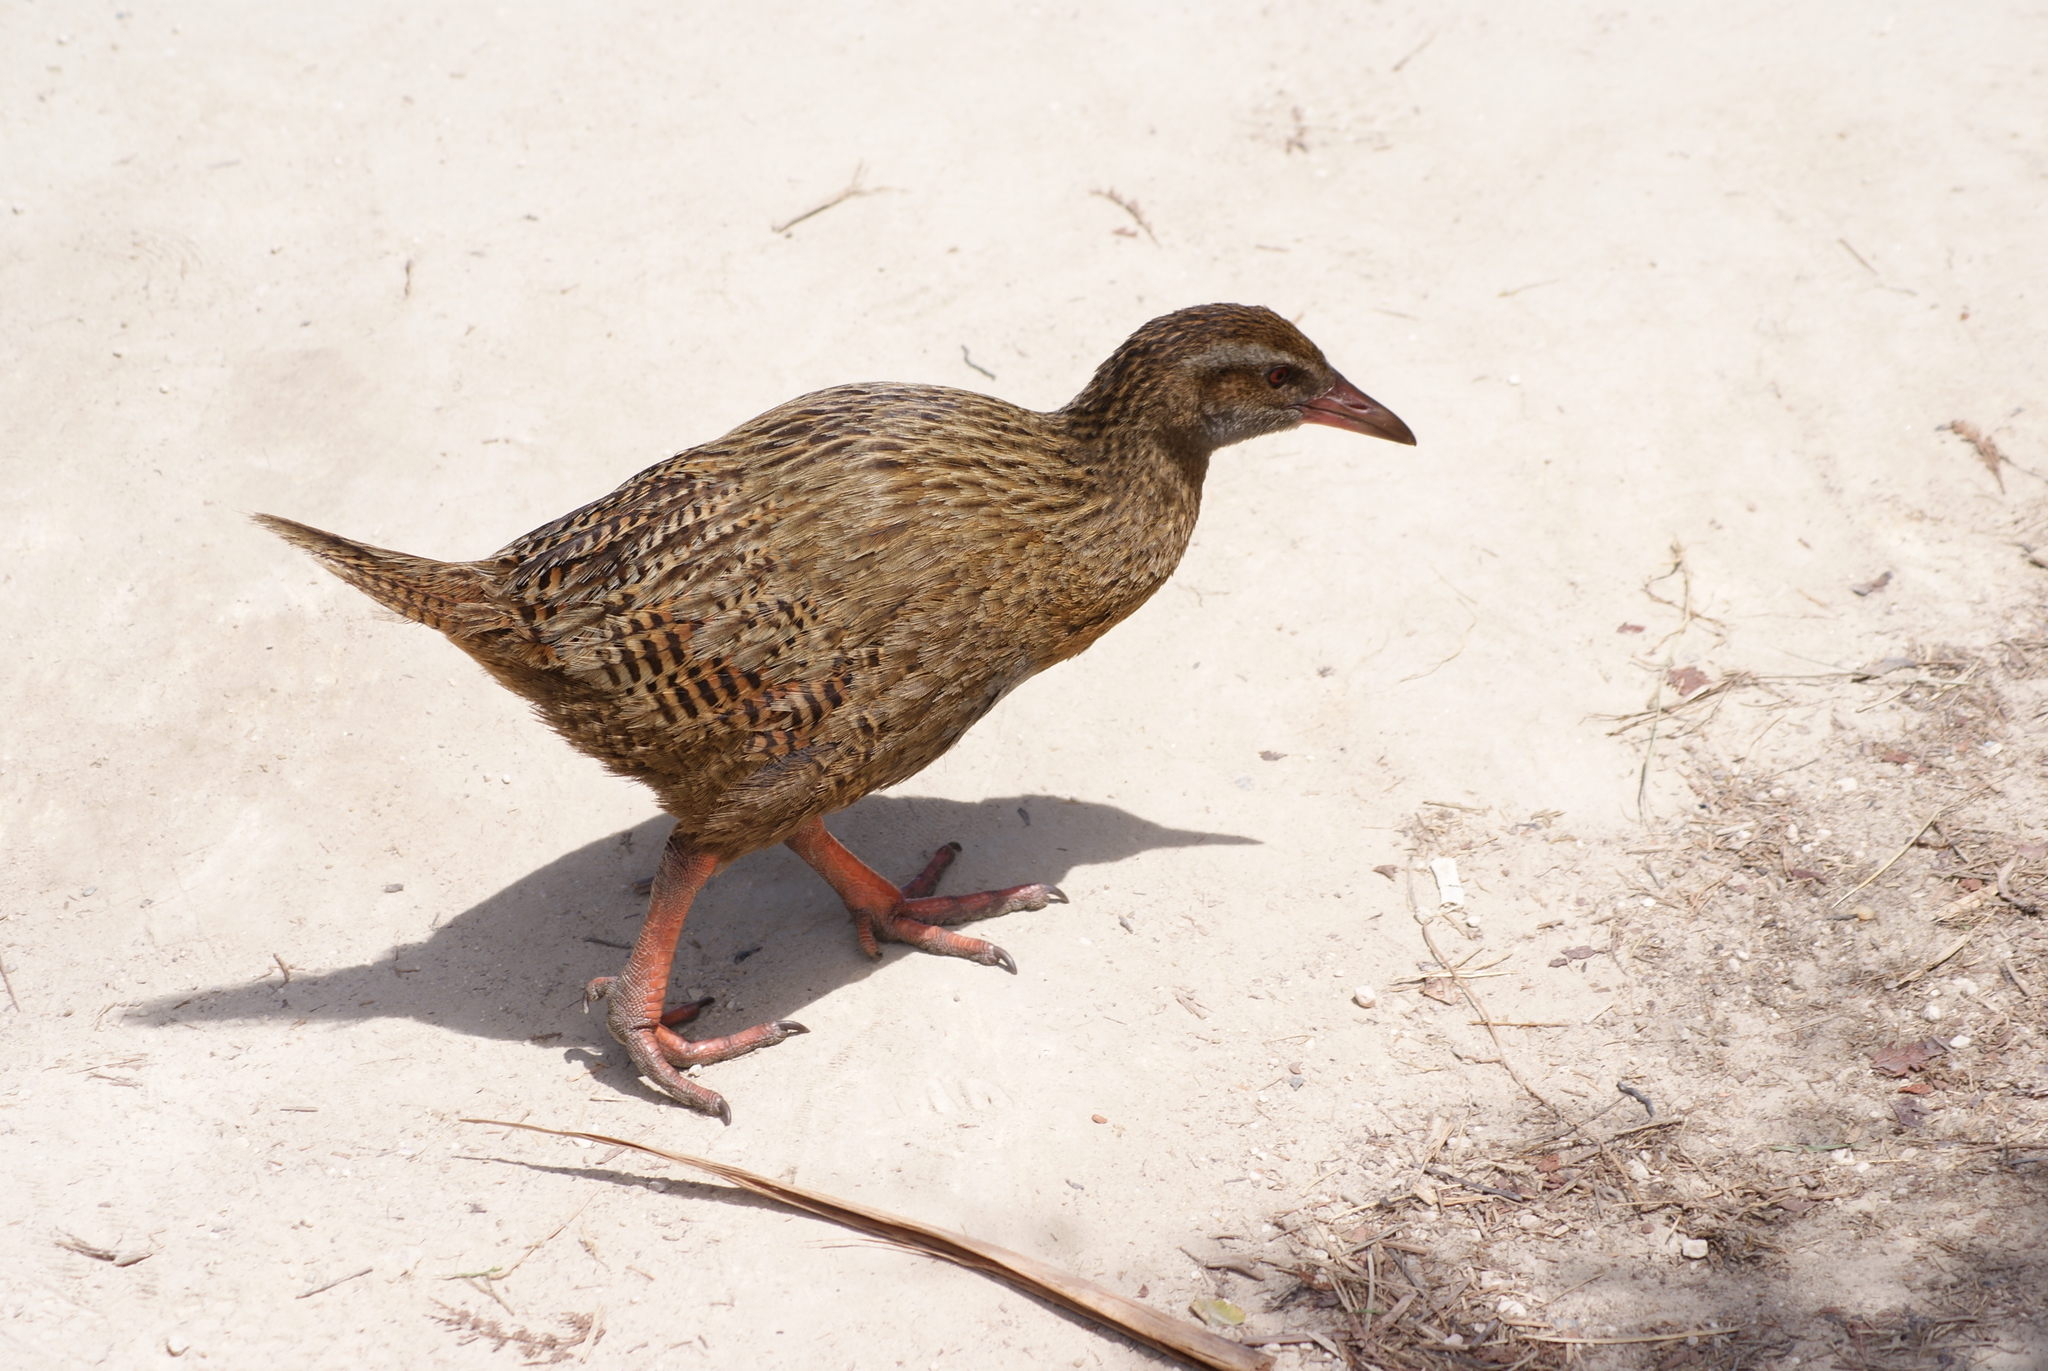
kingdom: Animalia
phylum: Chordata
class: Aves
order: Gruiformes
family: Rallidae
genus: Gallirallus
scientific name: Gallirallus australis
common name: Weka
